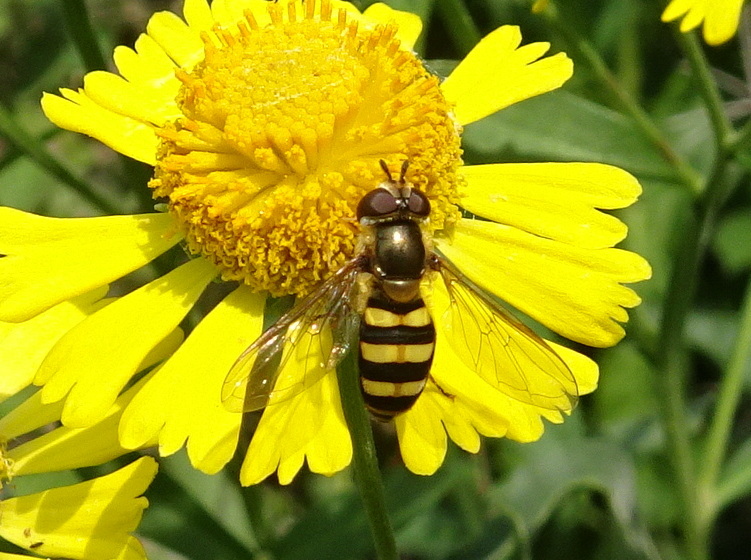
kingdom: Animalia
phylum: Arthropoda
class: Insecta
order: Diptera
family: Syrphidae
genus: Eupeodes
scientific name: Eupeodes
